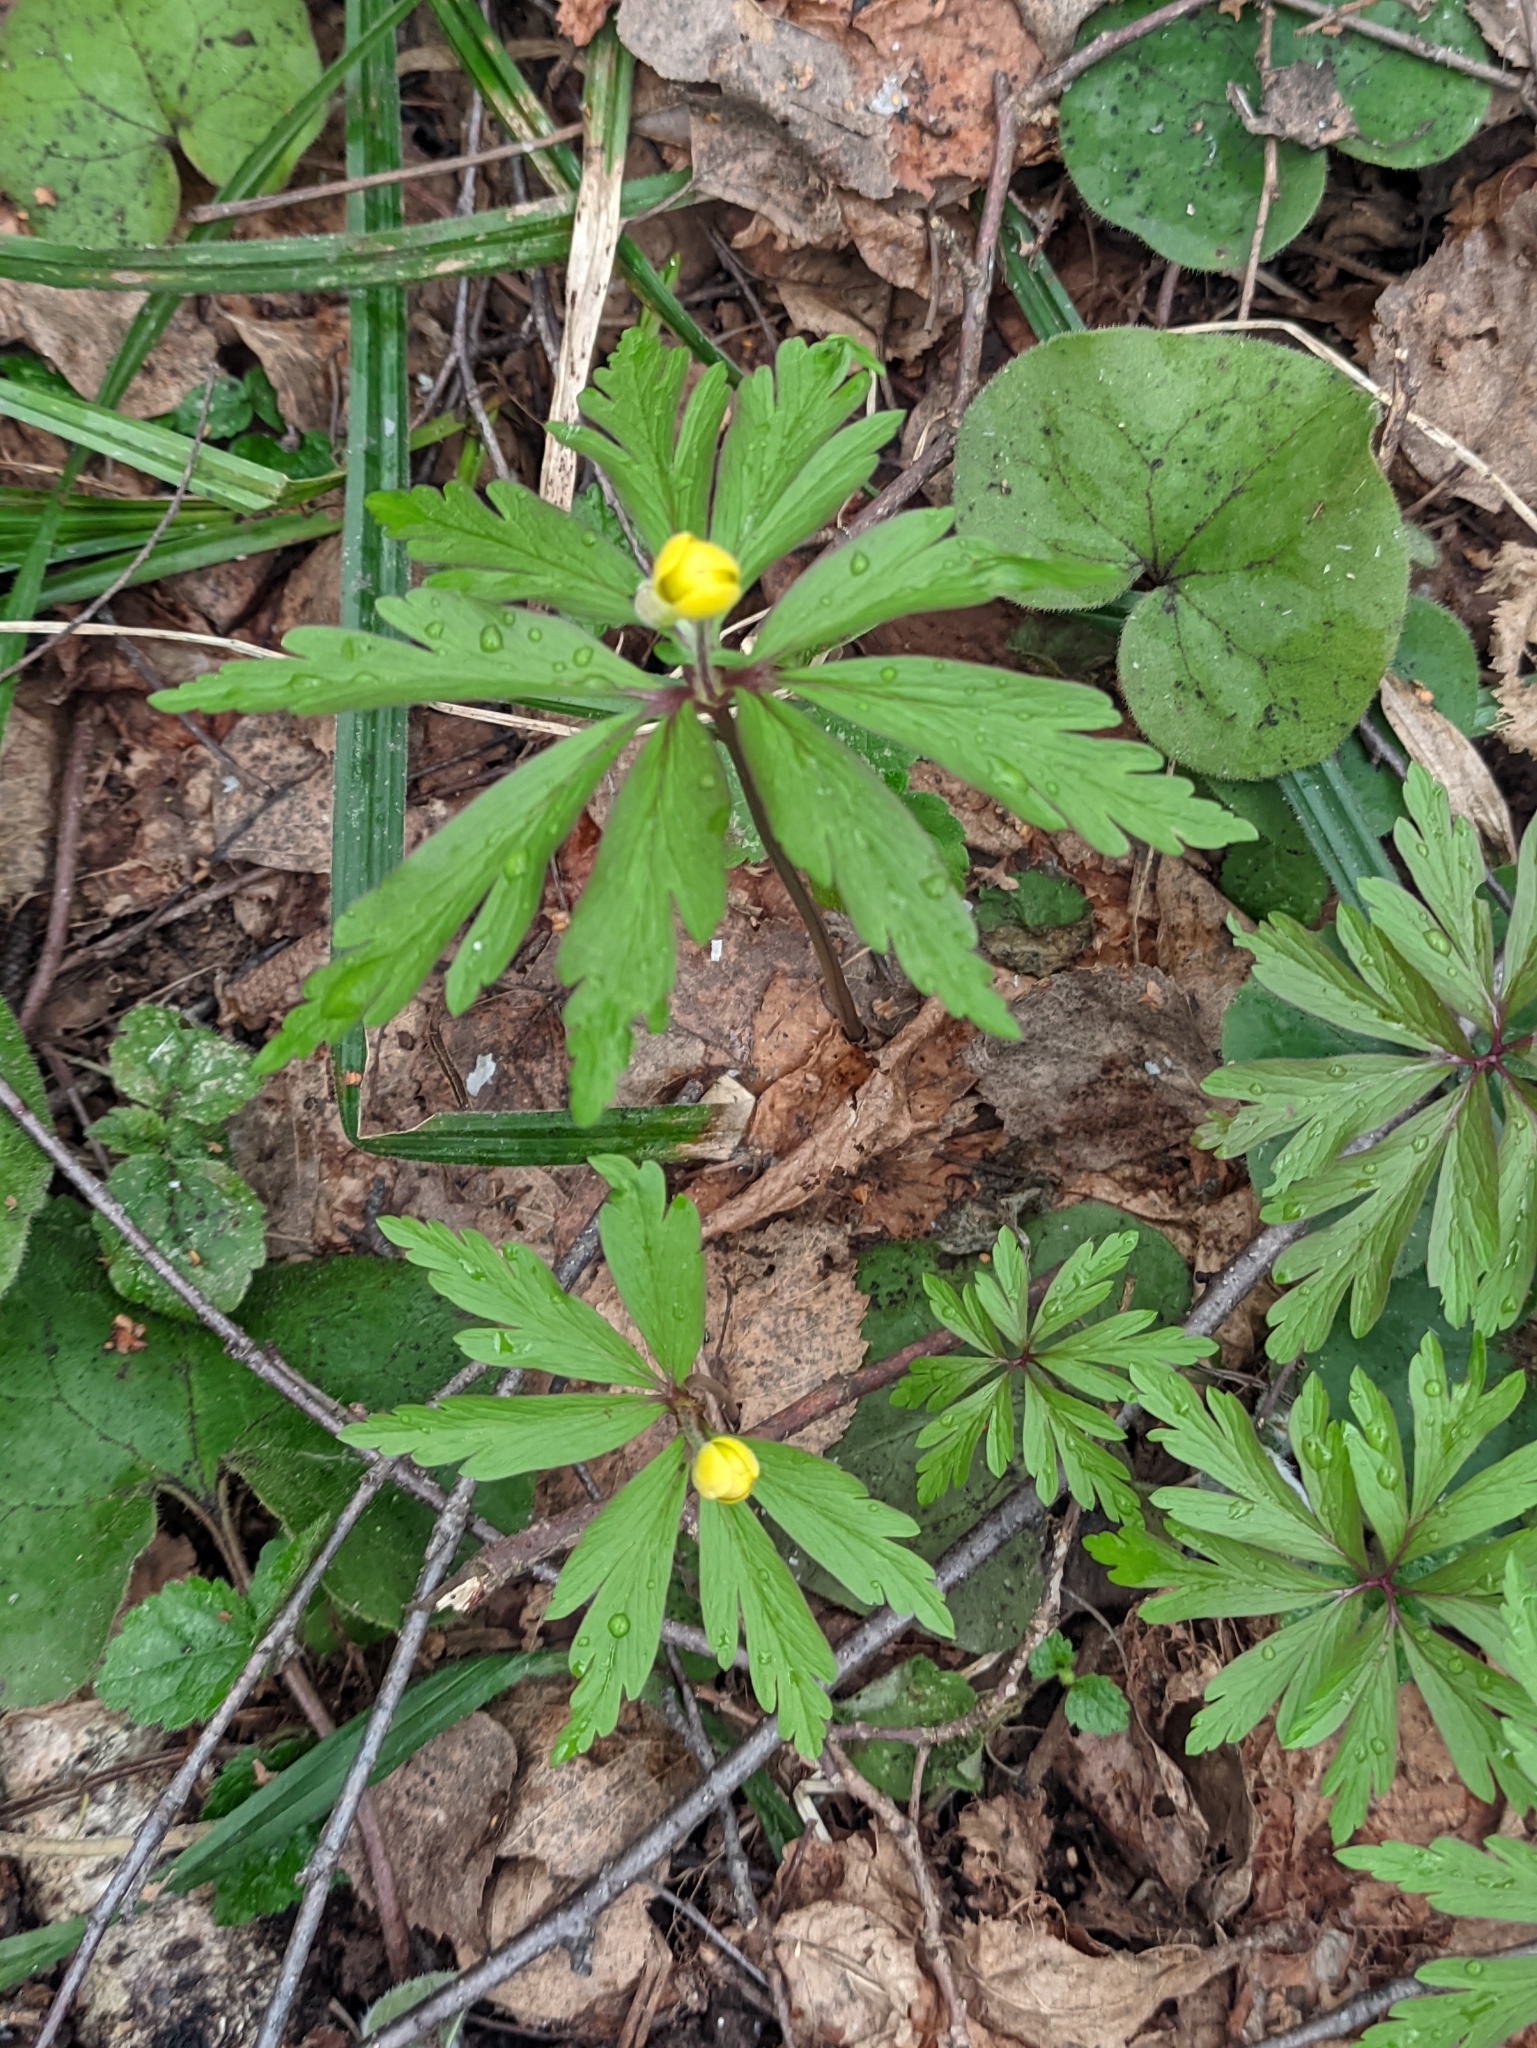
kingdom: Plantae
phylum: Tracheophyta
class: Magnoliopsida
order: Ranunculales
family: Ranunculaceae
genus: Anemone
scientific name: Anemone ranunculoides
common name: Yellow anemone
